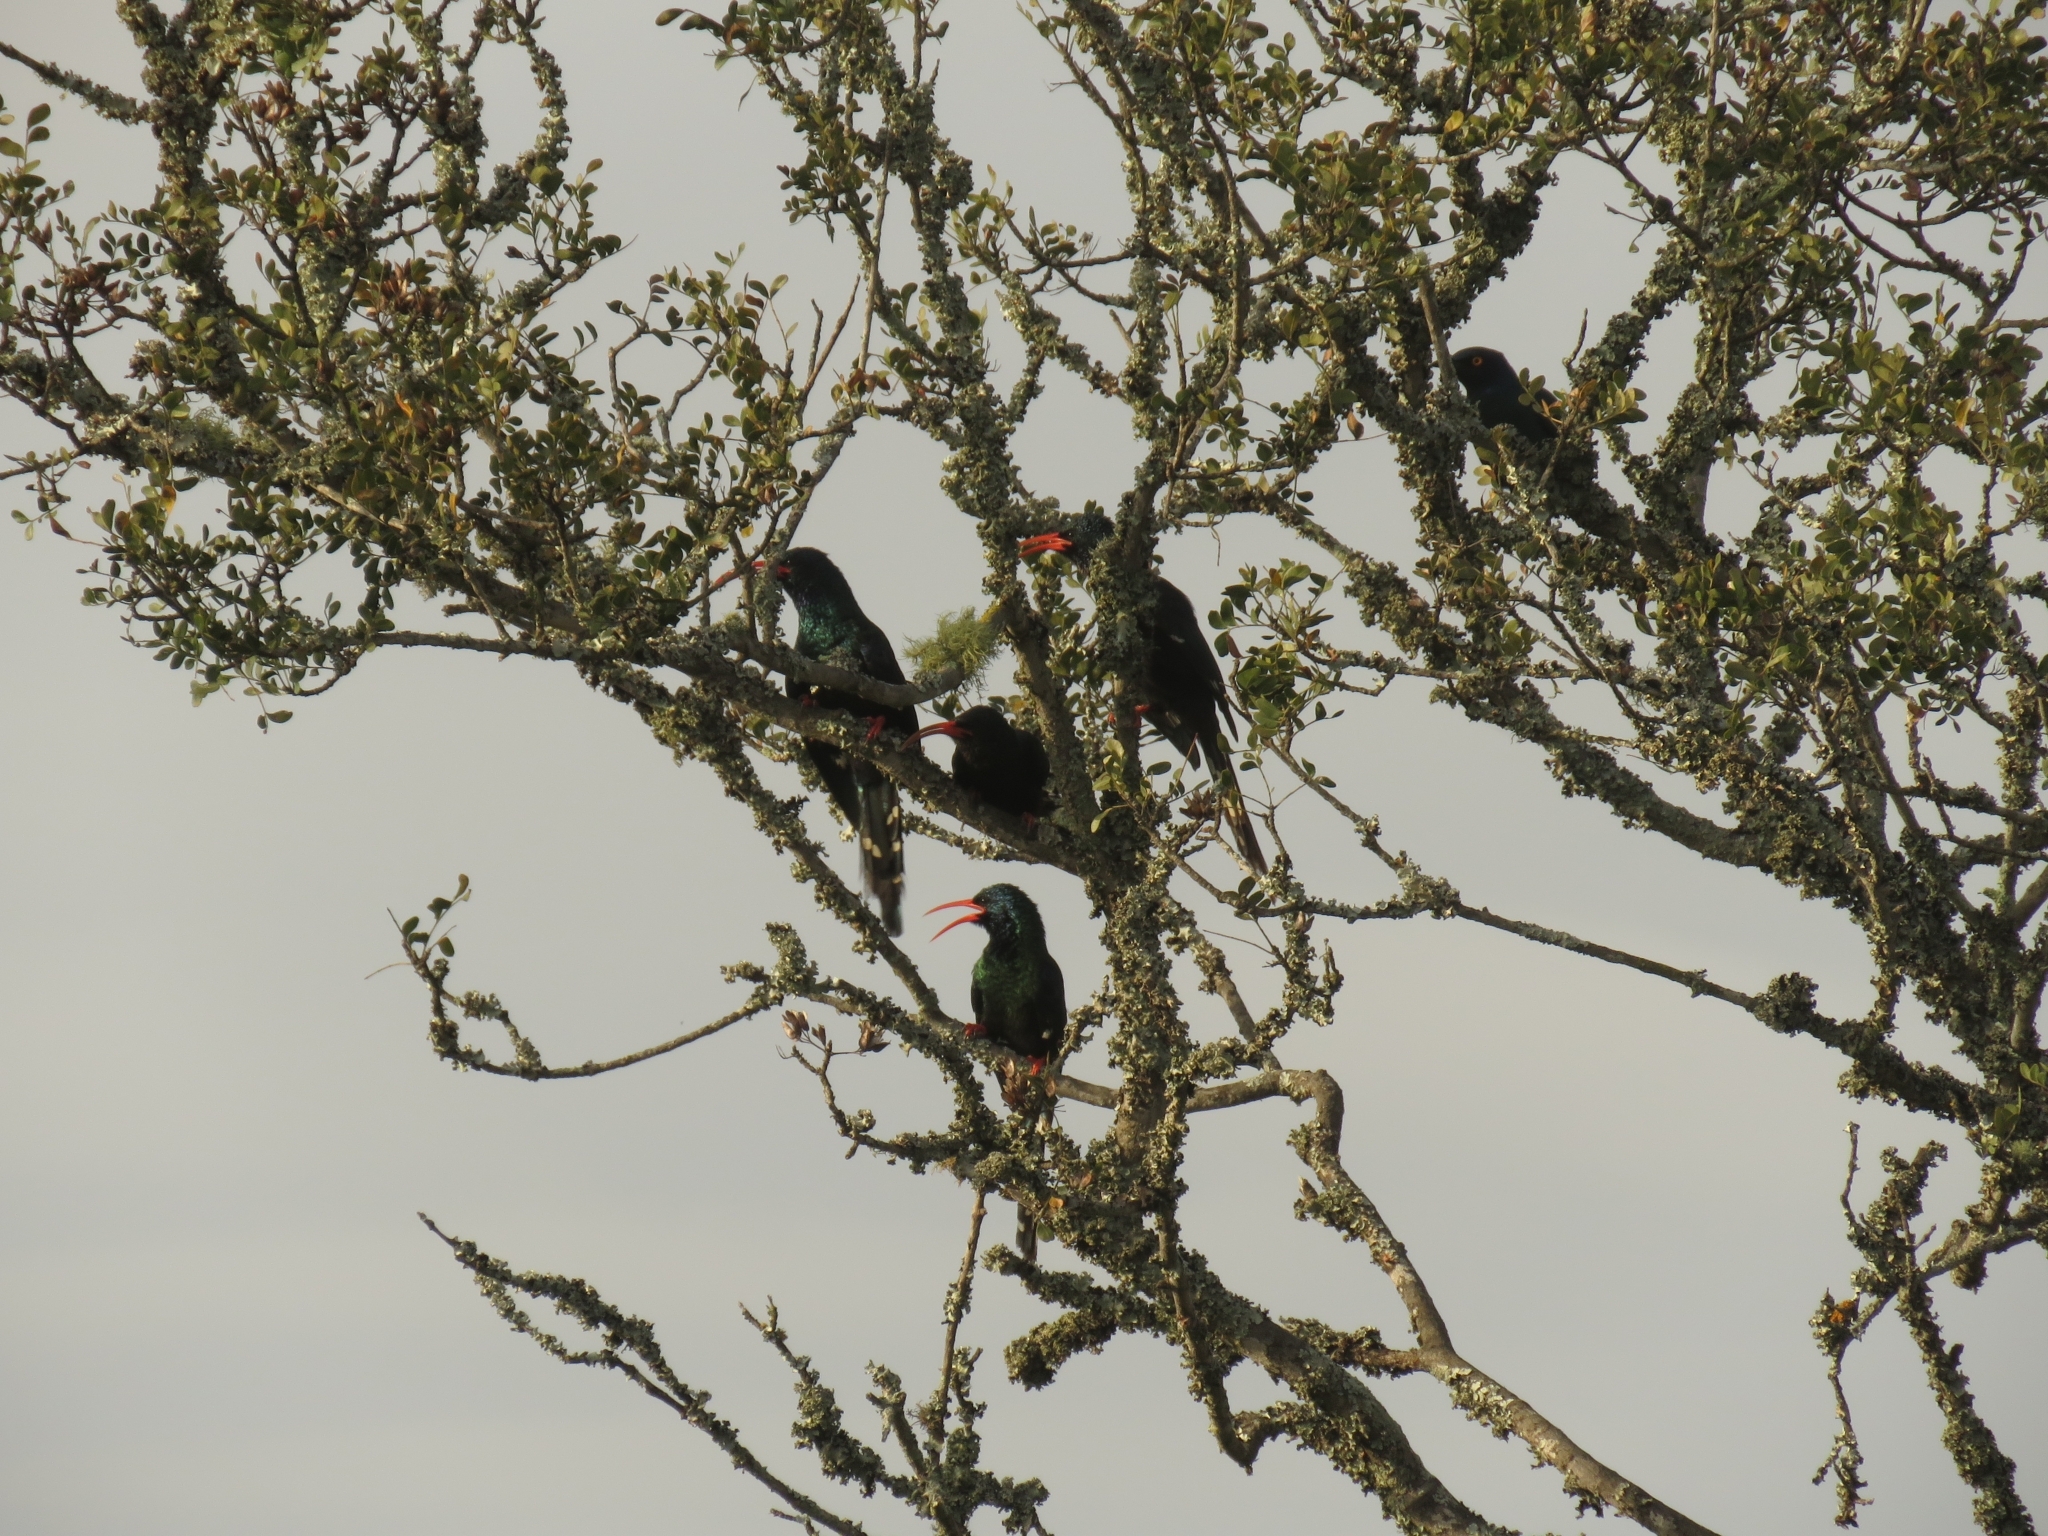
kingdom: Animalia
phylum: Chordata
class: Aves
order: Bucerotiformes
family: Phoeniculidae
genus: Phoeniculus
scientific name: Phoeniculus purpureus
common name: Green woodhoopoe
